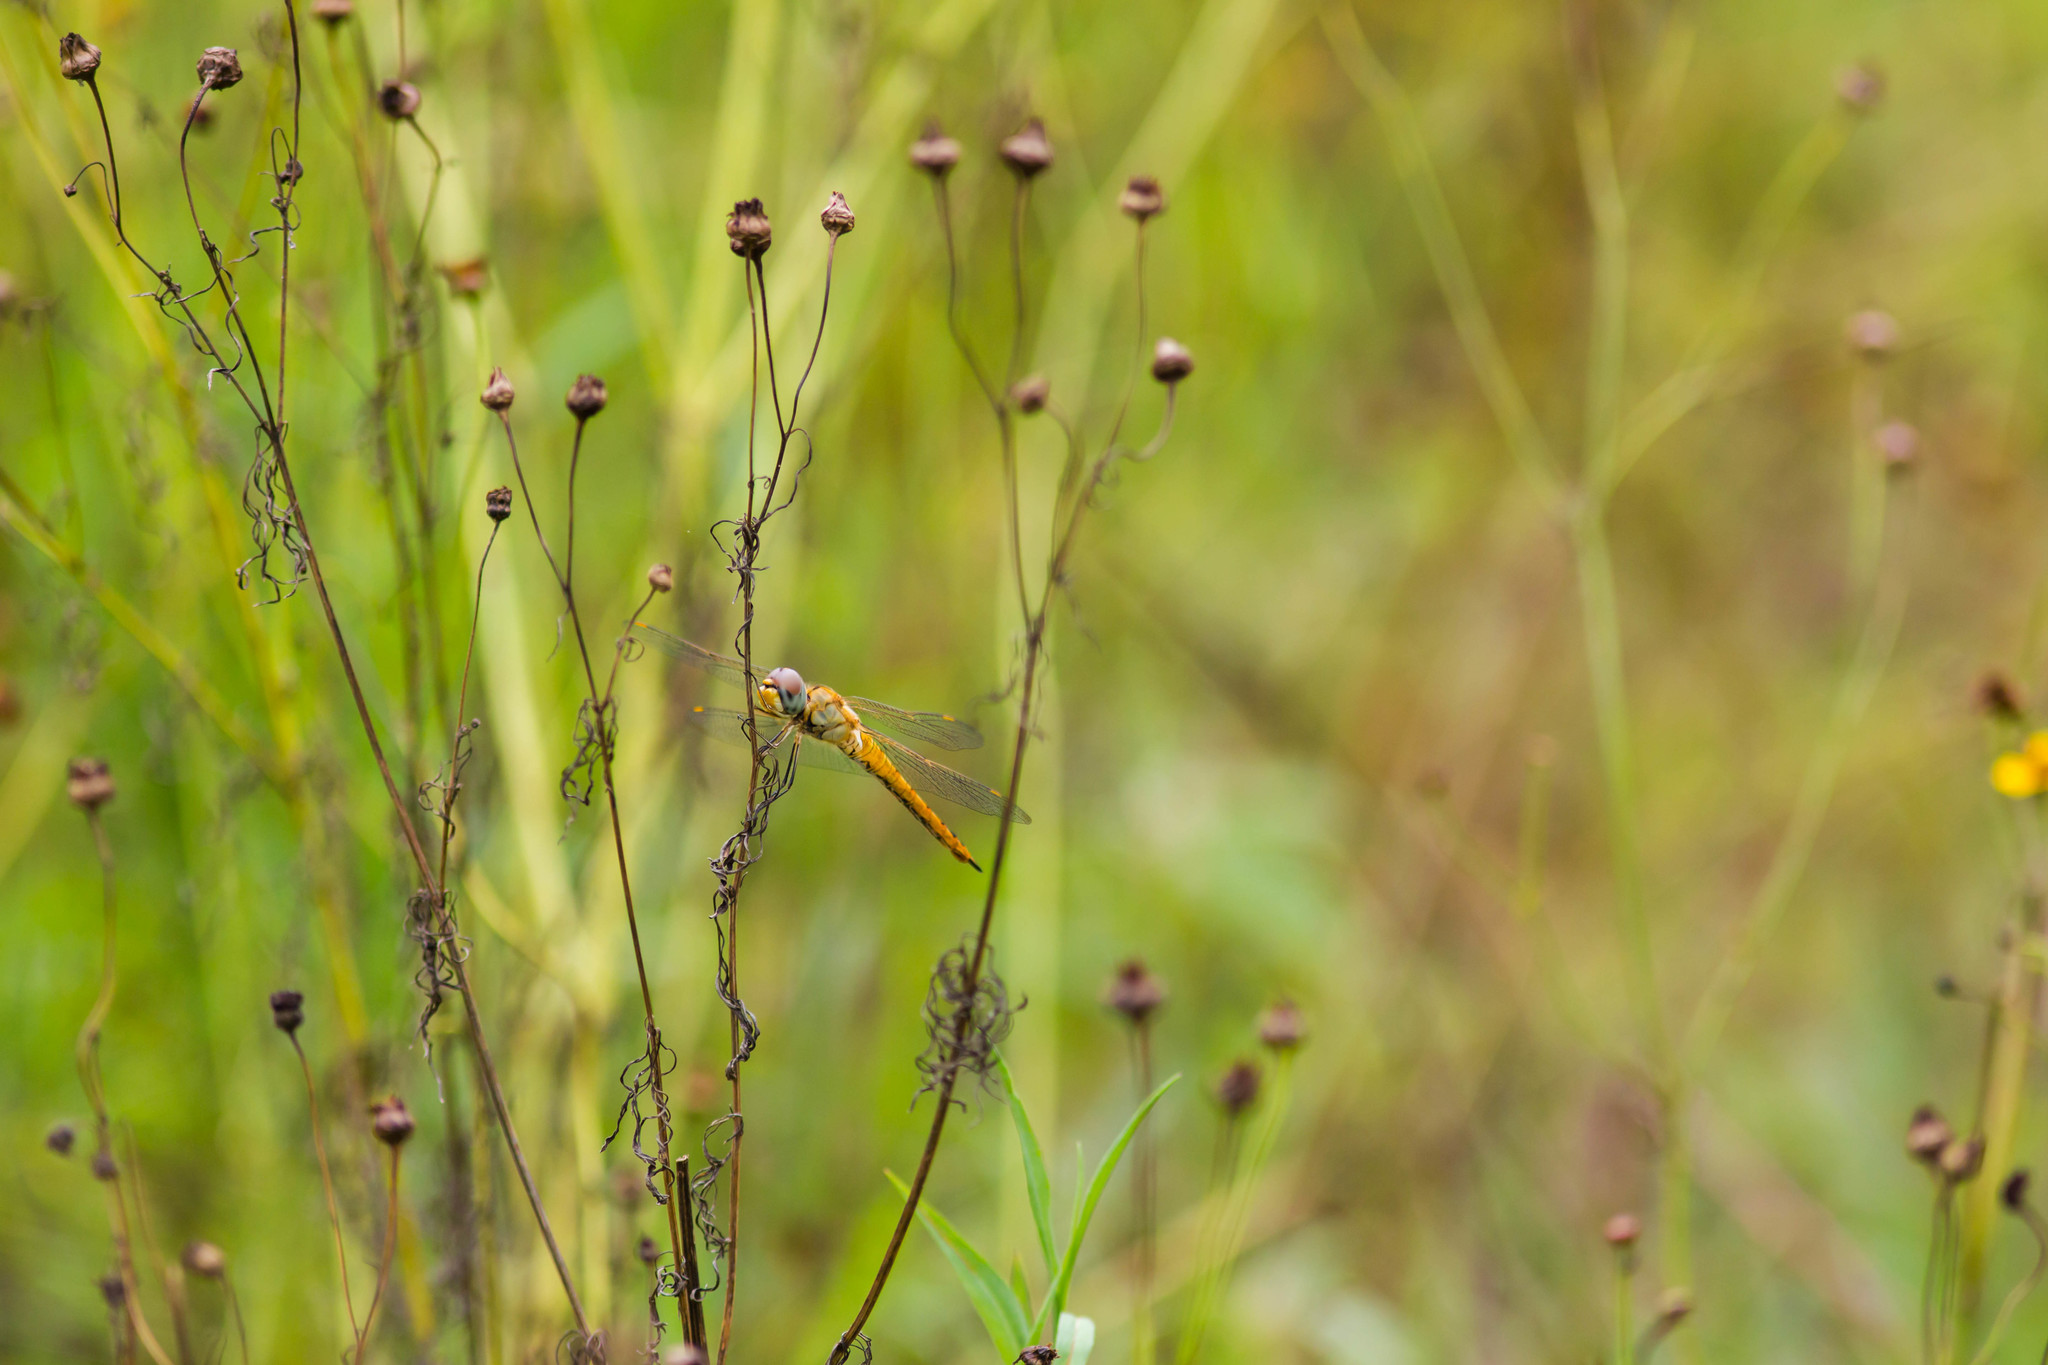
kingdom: Animalia
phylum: Arthropoda
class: Insecta
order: Odonata
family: Libellulidae
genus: Pantala
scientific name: Pantala flavescens
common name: Wandering glider
